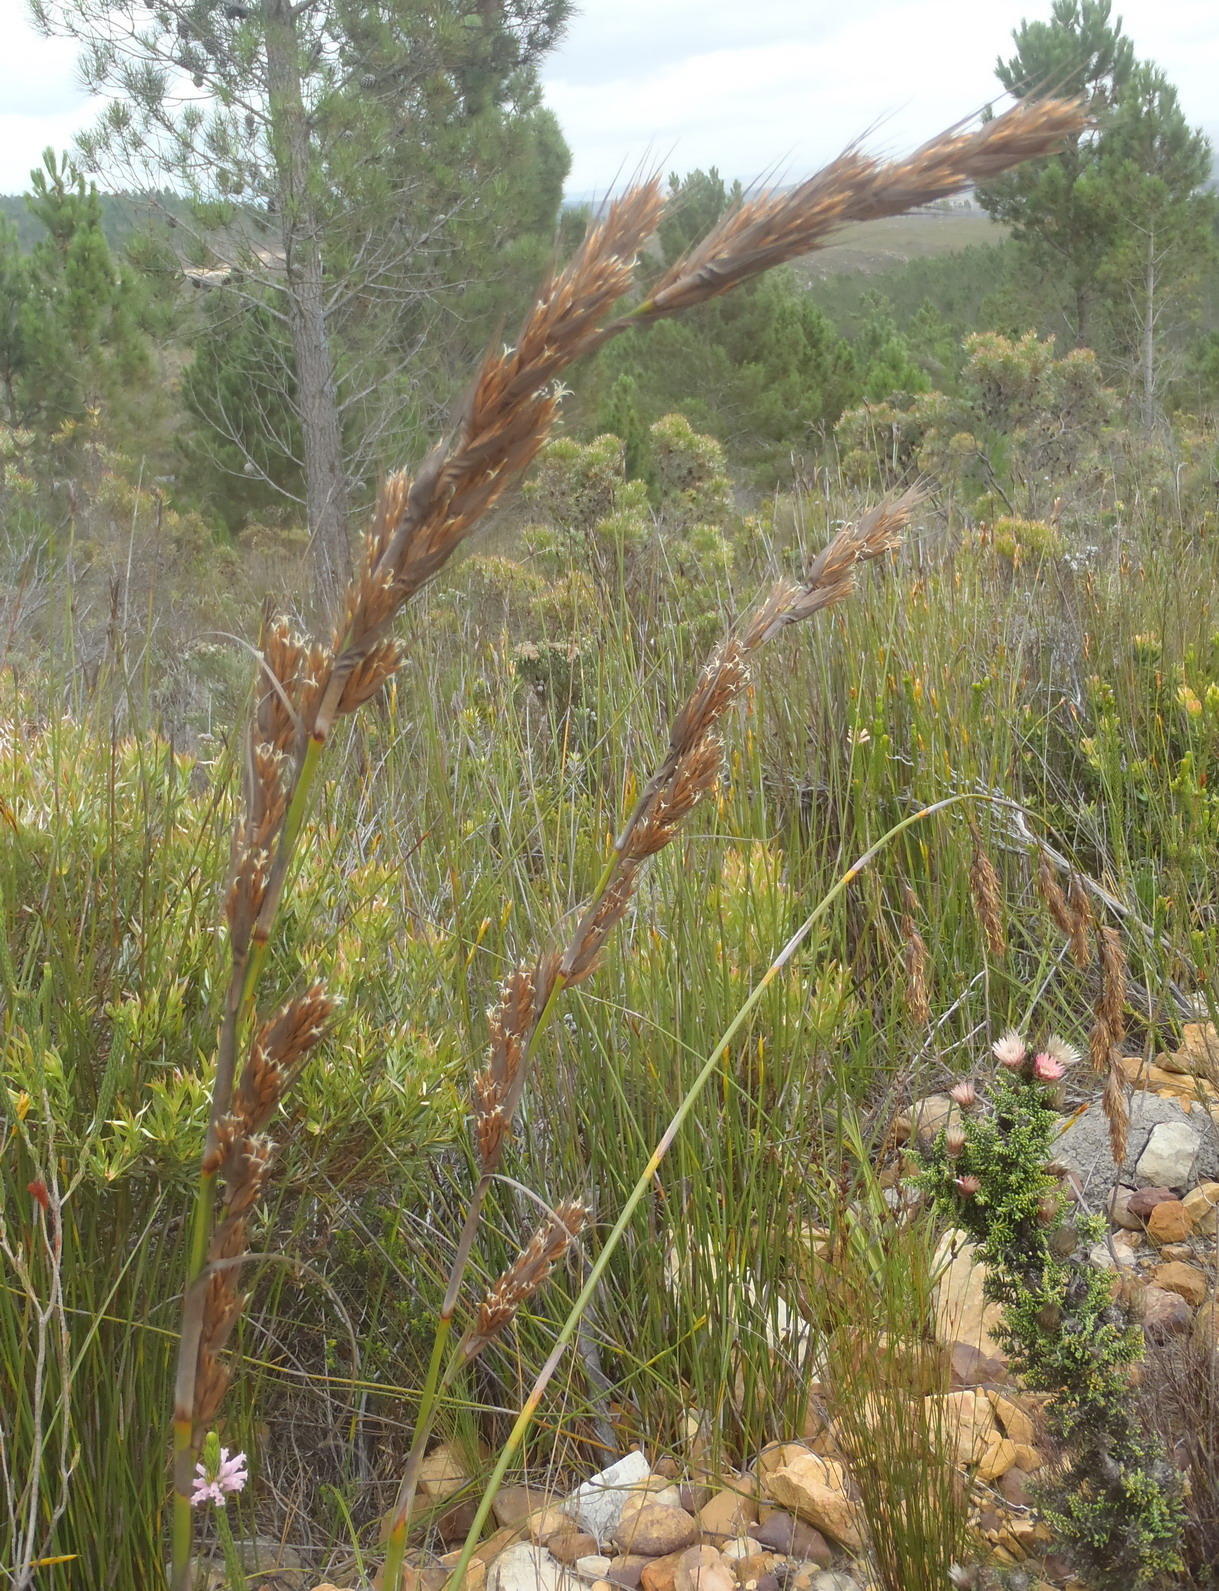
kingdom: Plantae
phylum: Tracheophyta
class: Liliopsida
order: Poales
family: Cyperaceae
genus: Tetraria
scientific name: Tetraria bromoides
